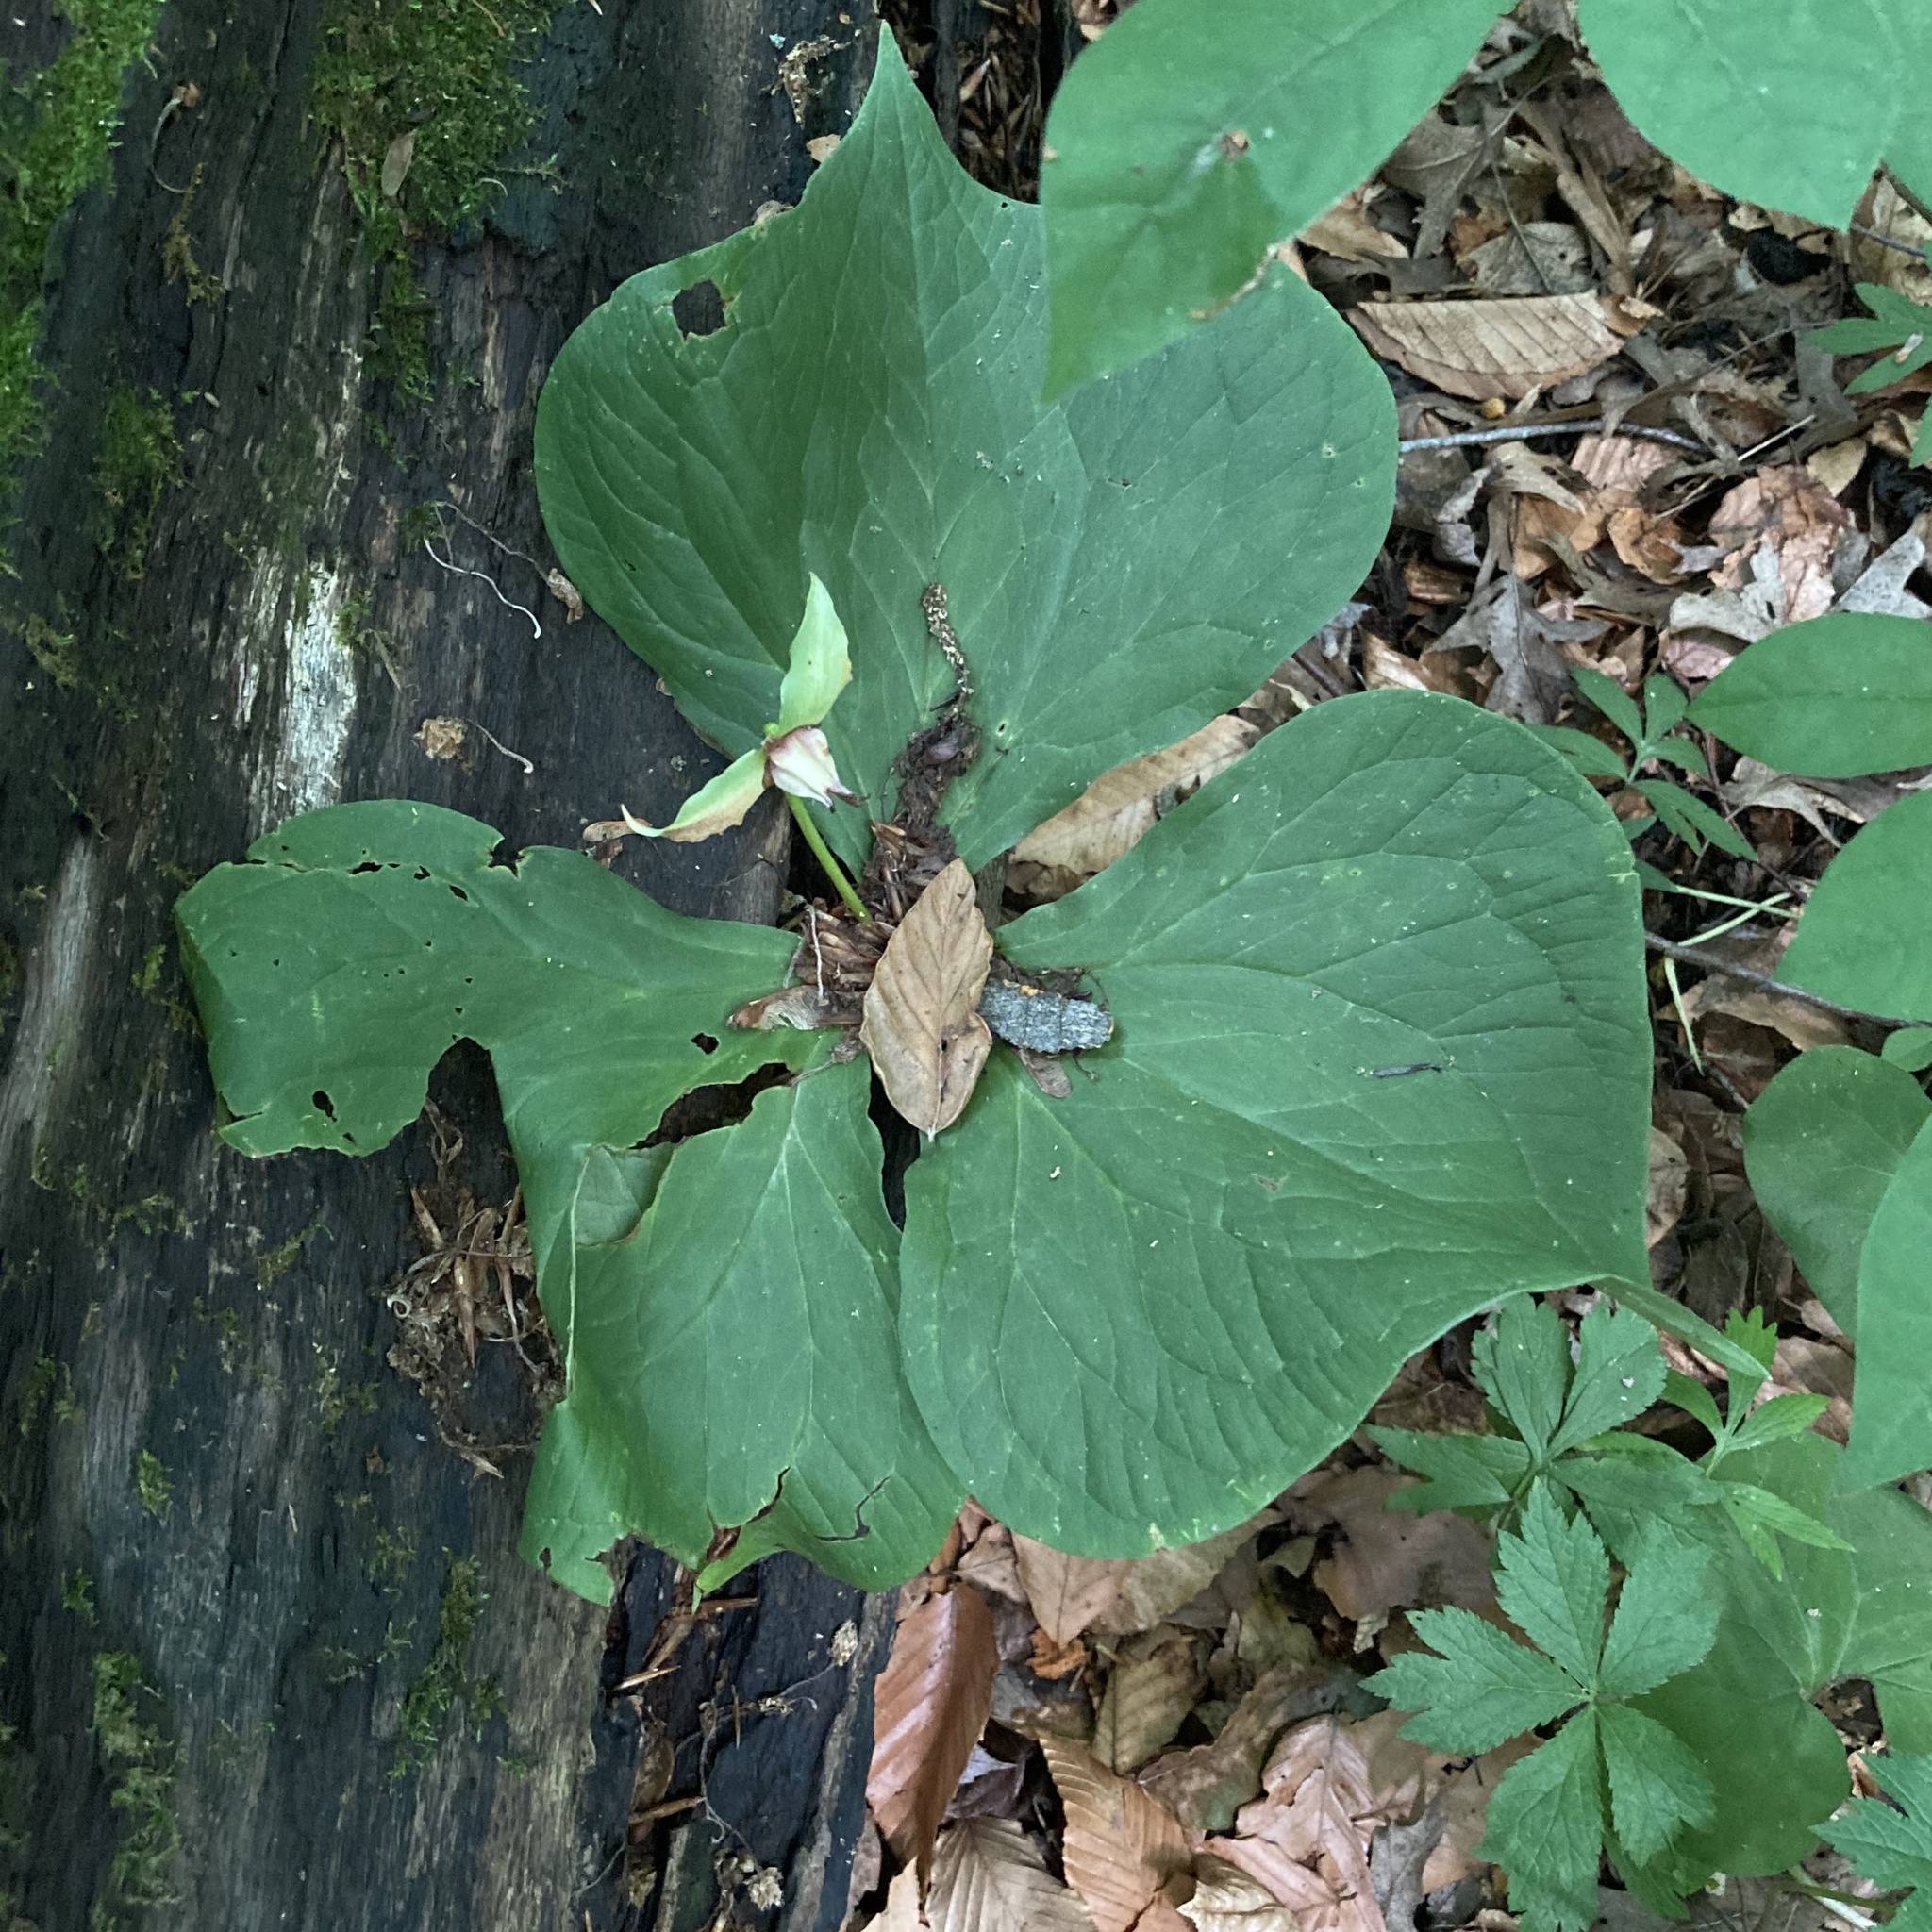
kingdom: Plantae
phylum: Tracheophyta
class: Liliopsida
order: Liliales
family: Melanthiaceae
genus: Trillium
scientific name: Trillium flexipes
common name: Drooping trillium
